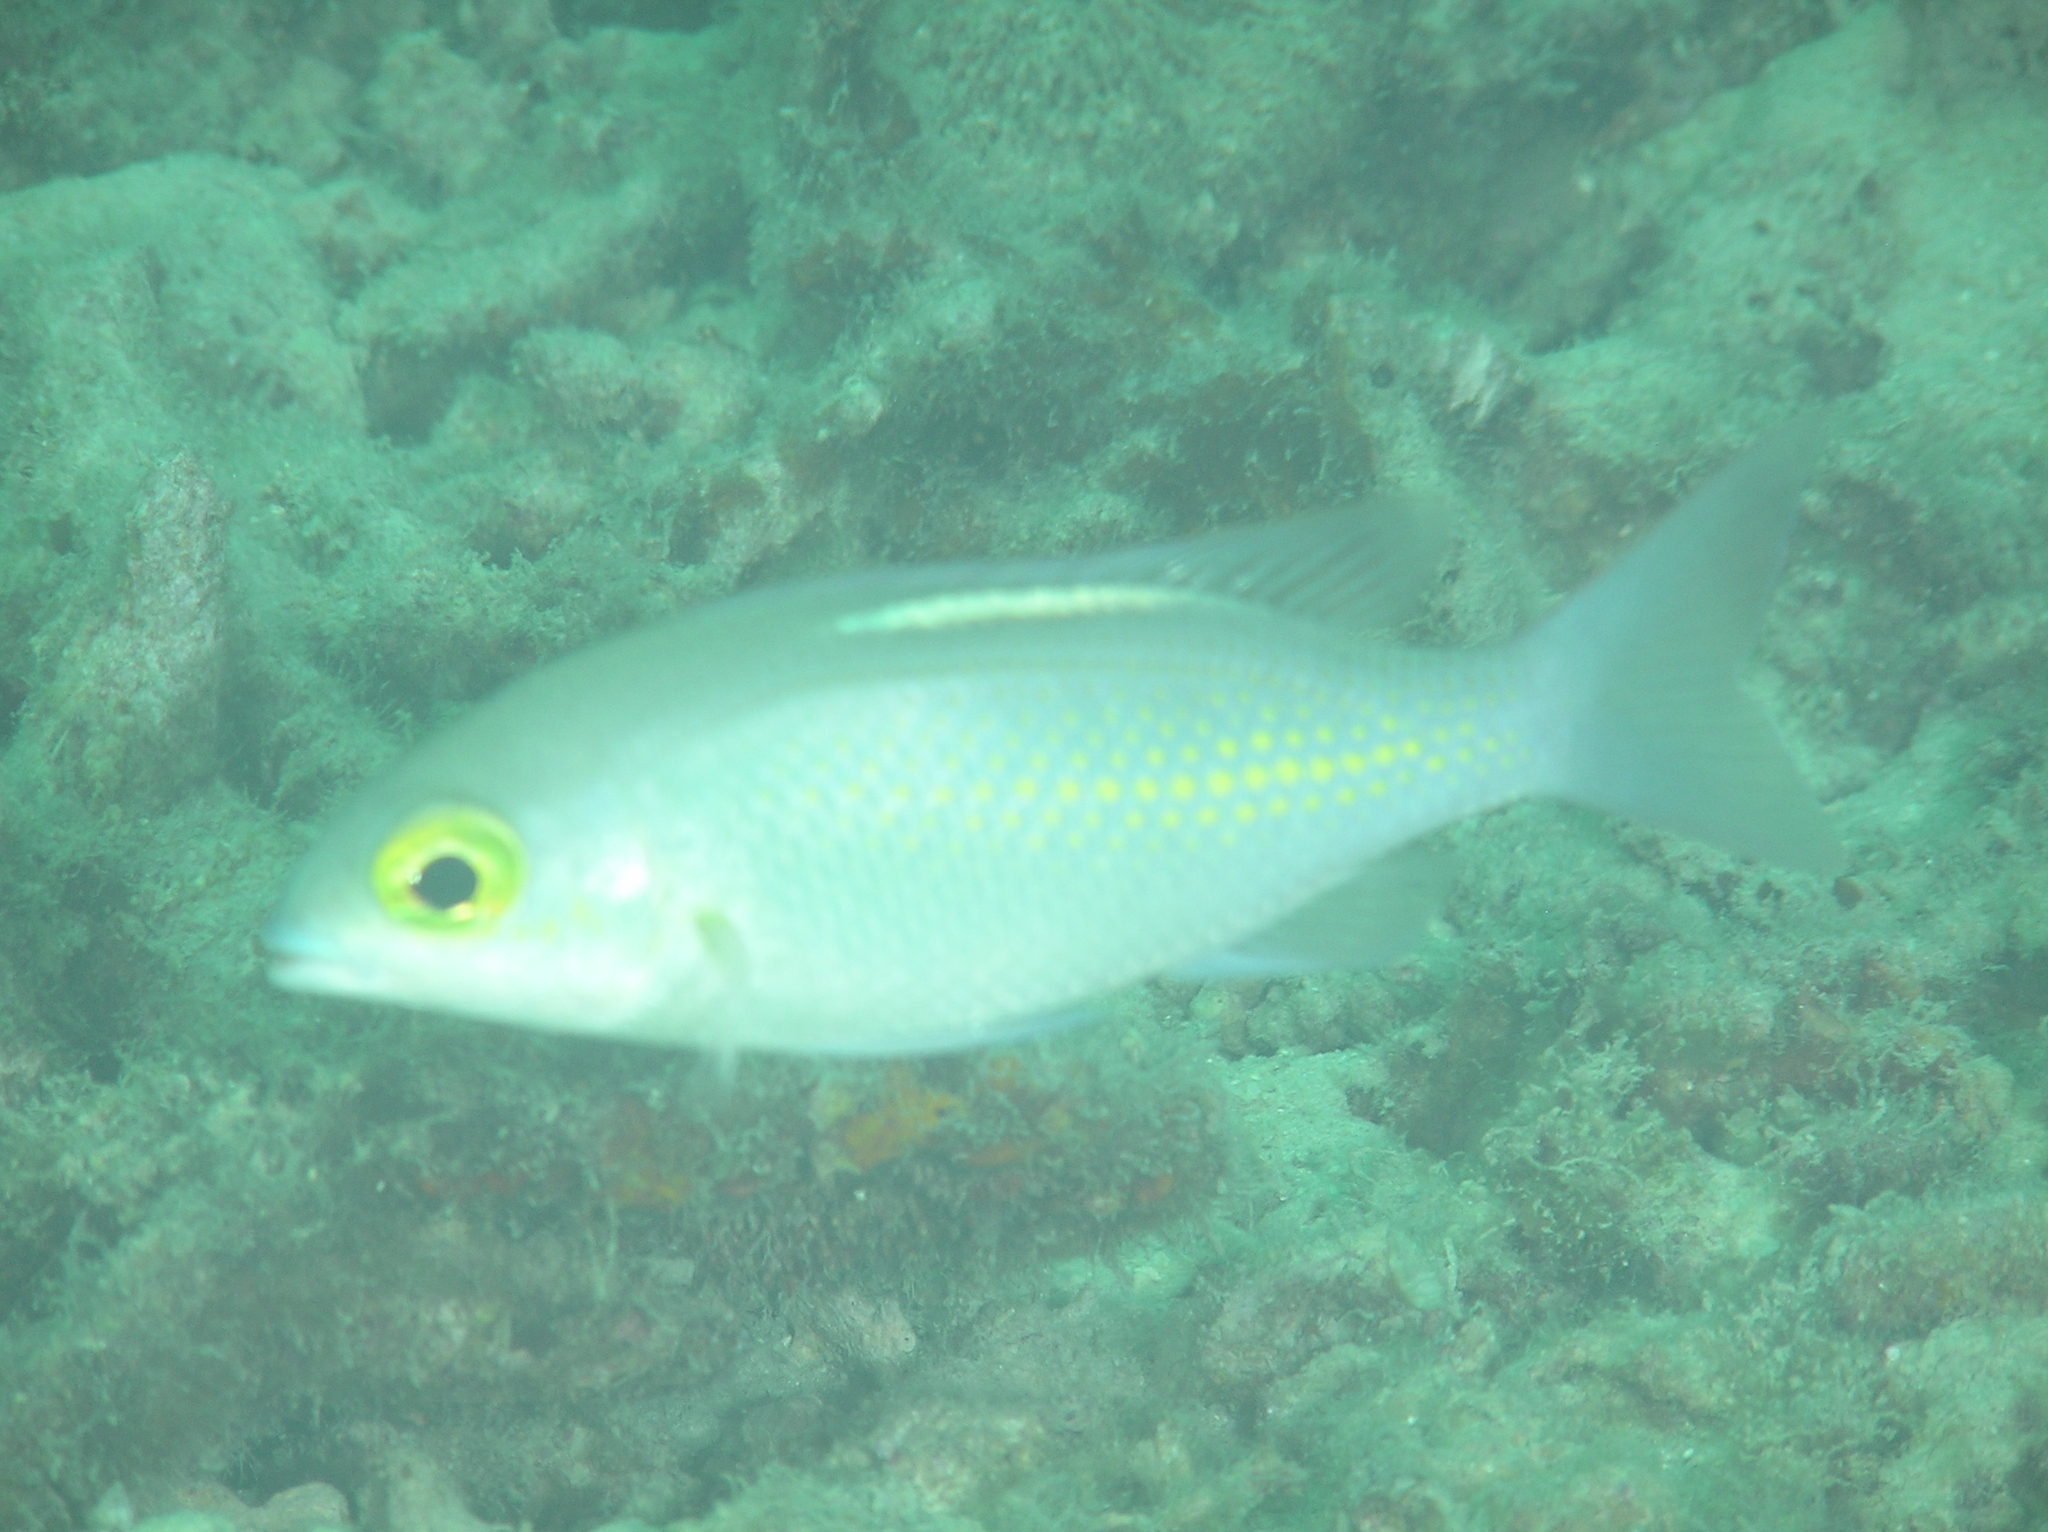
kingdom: Animalia
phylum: Chordata
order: Perciformes
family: Nemipteridae
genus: Scolopsis
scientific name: Scolopsis ciliata
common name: Ciliate spinecheek
